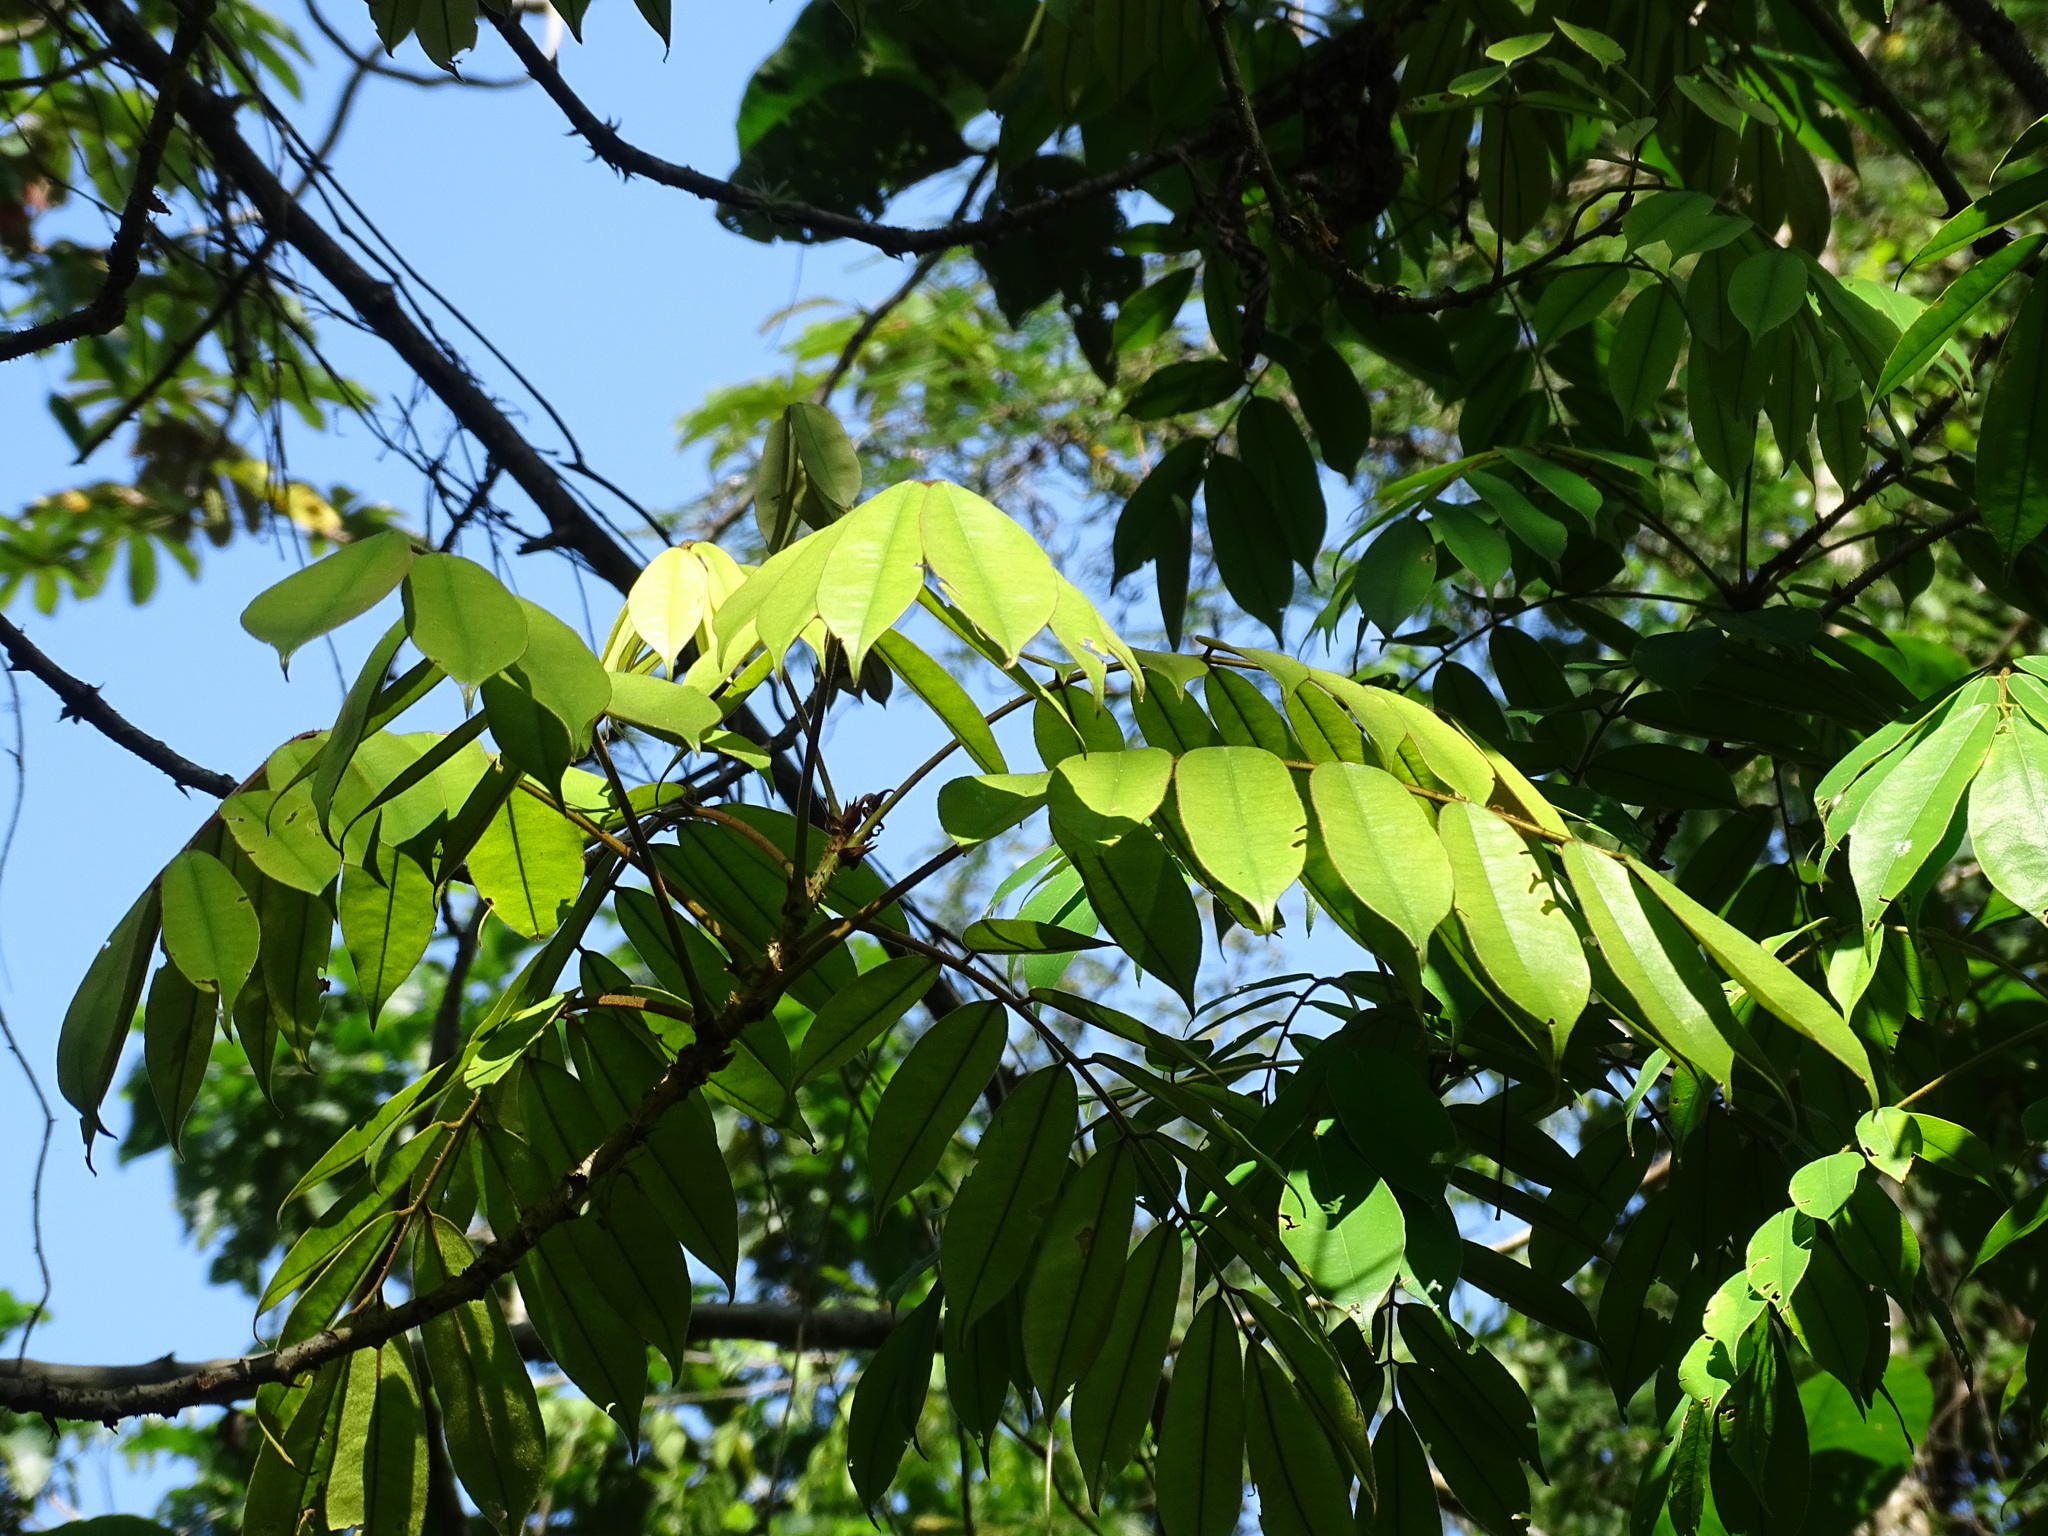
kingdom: Plantae
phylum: Tracheophyta
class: Magnoliopsida
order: Fabales
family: Fabaceae
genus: Machaerium
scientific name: Machaerium kegelii
